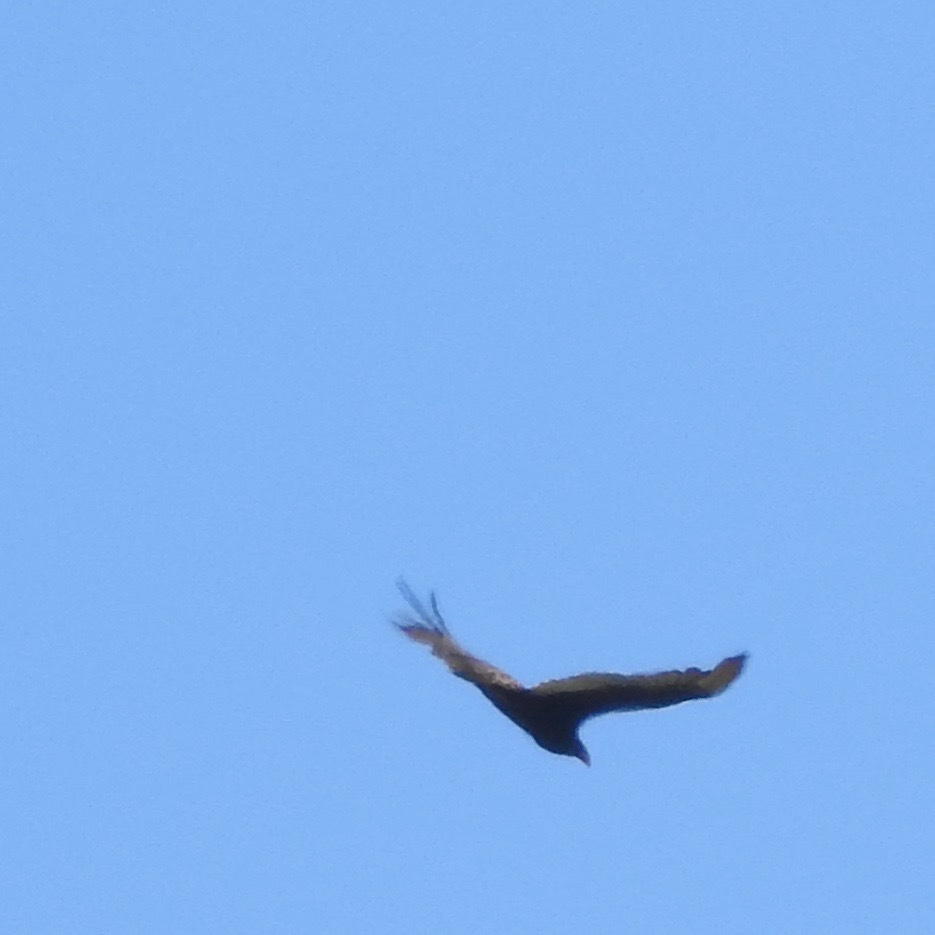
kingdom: Animalia
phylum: Chordata
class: Aves
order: Accipitriformes
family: Cathartidae
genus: Cathartes
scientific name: Cathartes aura
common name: Turkey vulture
